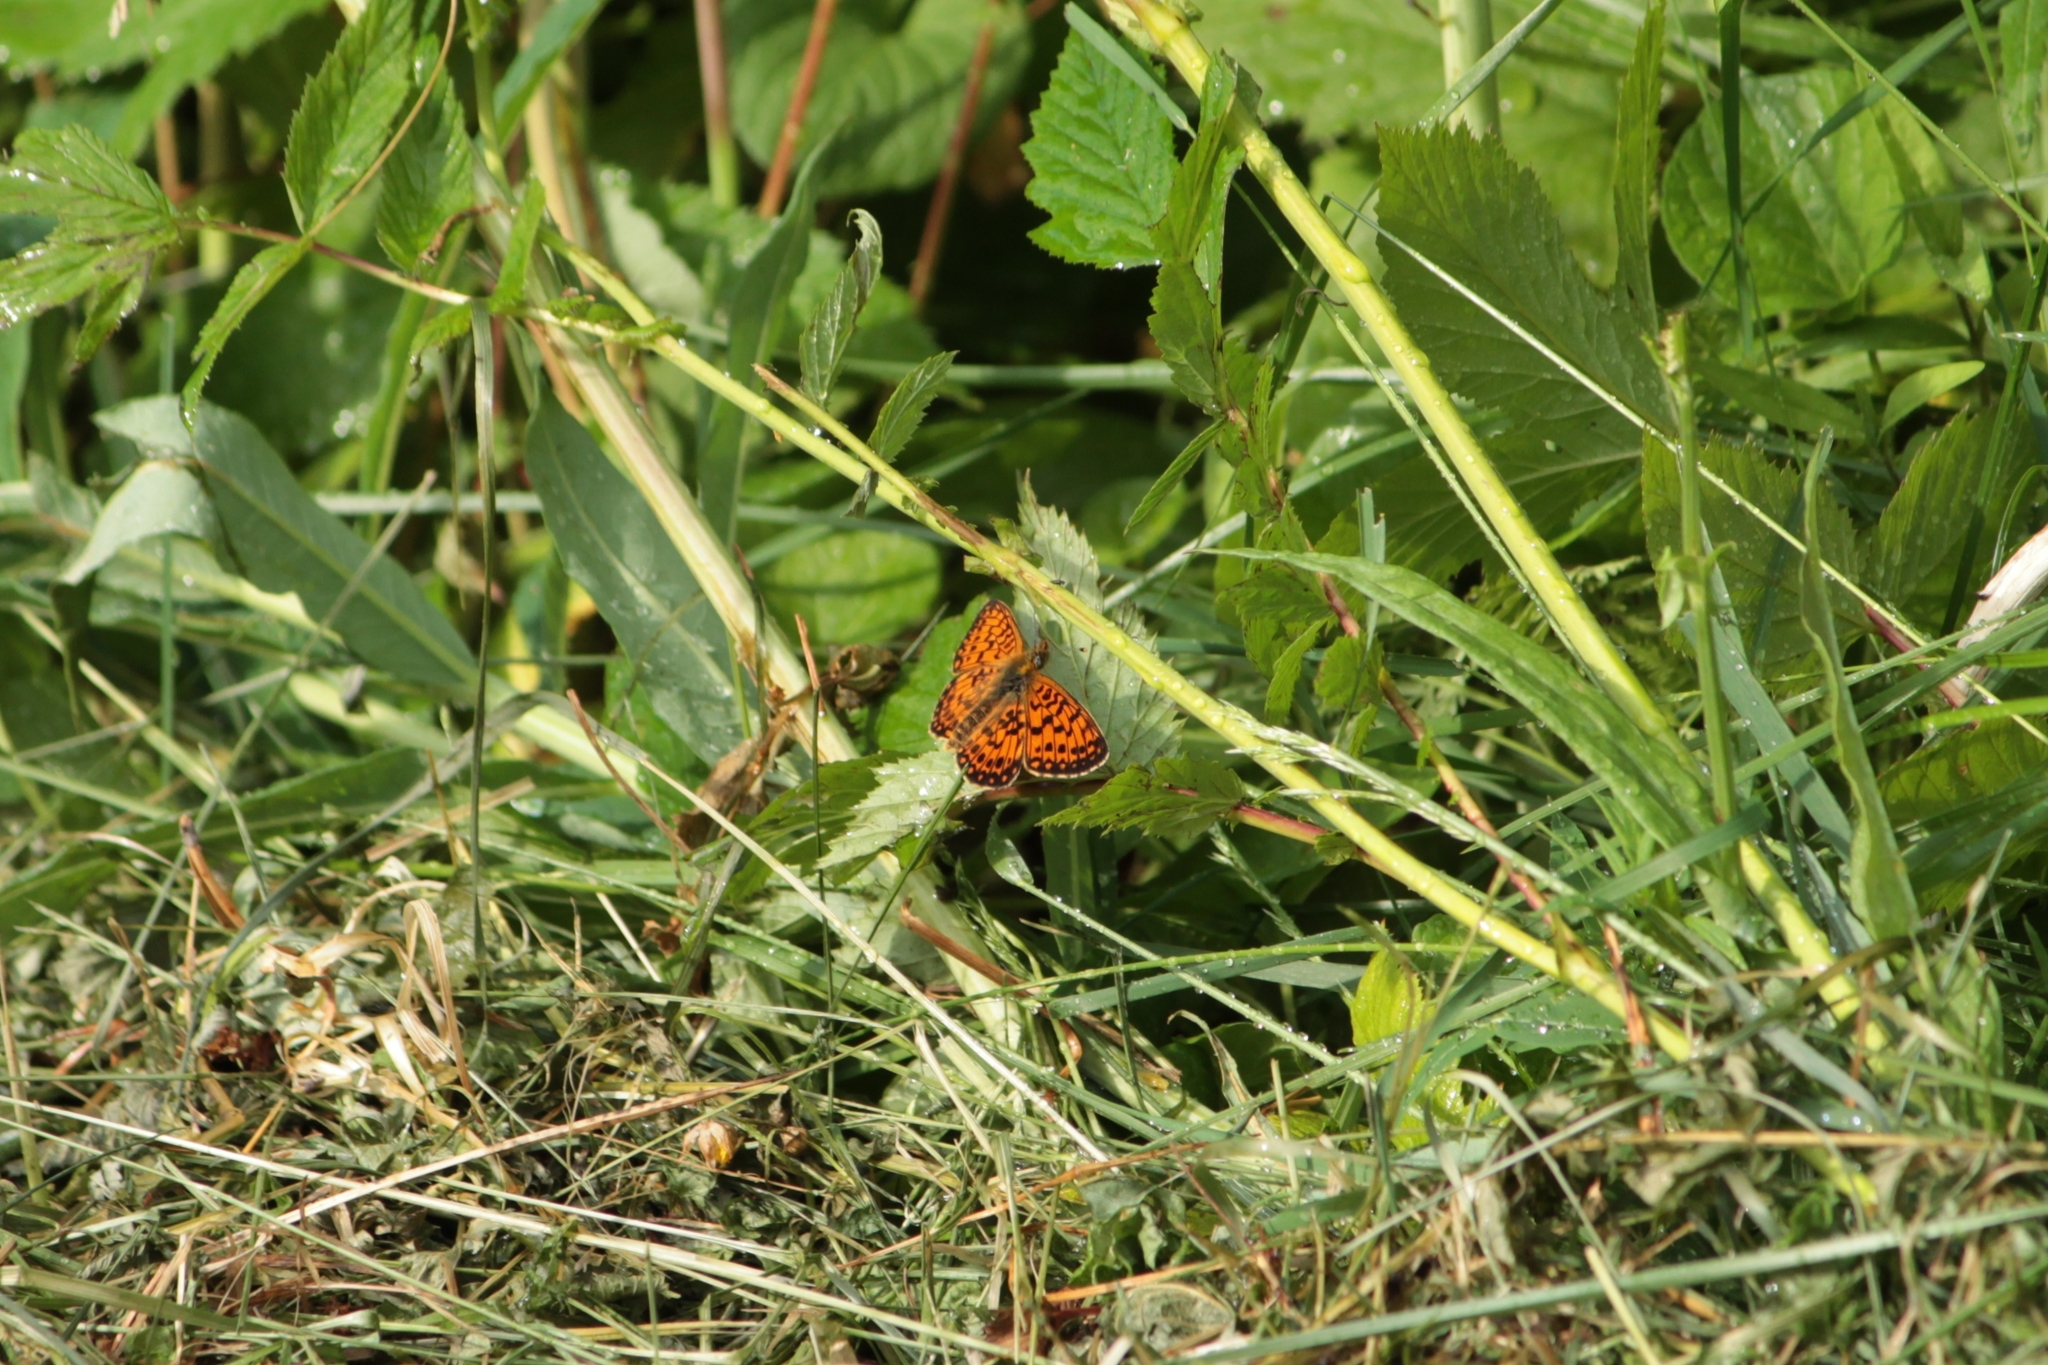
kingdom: Animalia
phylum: Arthropoda
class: Insecta
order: Lepidoptera
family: Nymphalidae
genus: Boloria
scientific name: Boloria selene
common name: Small pearl-bordered fritillary
